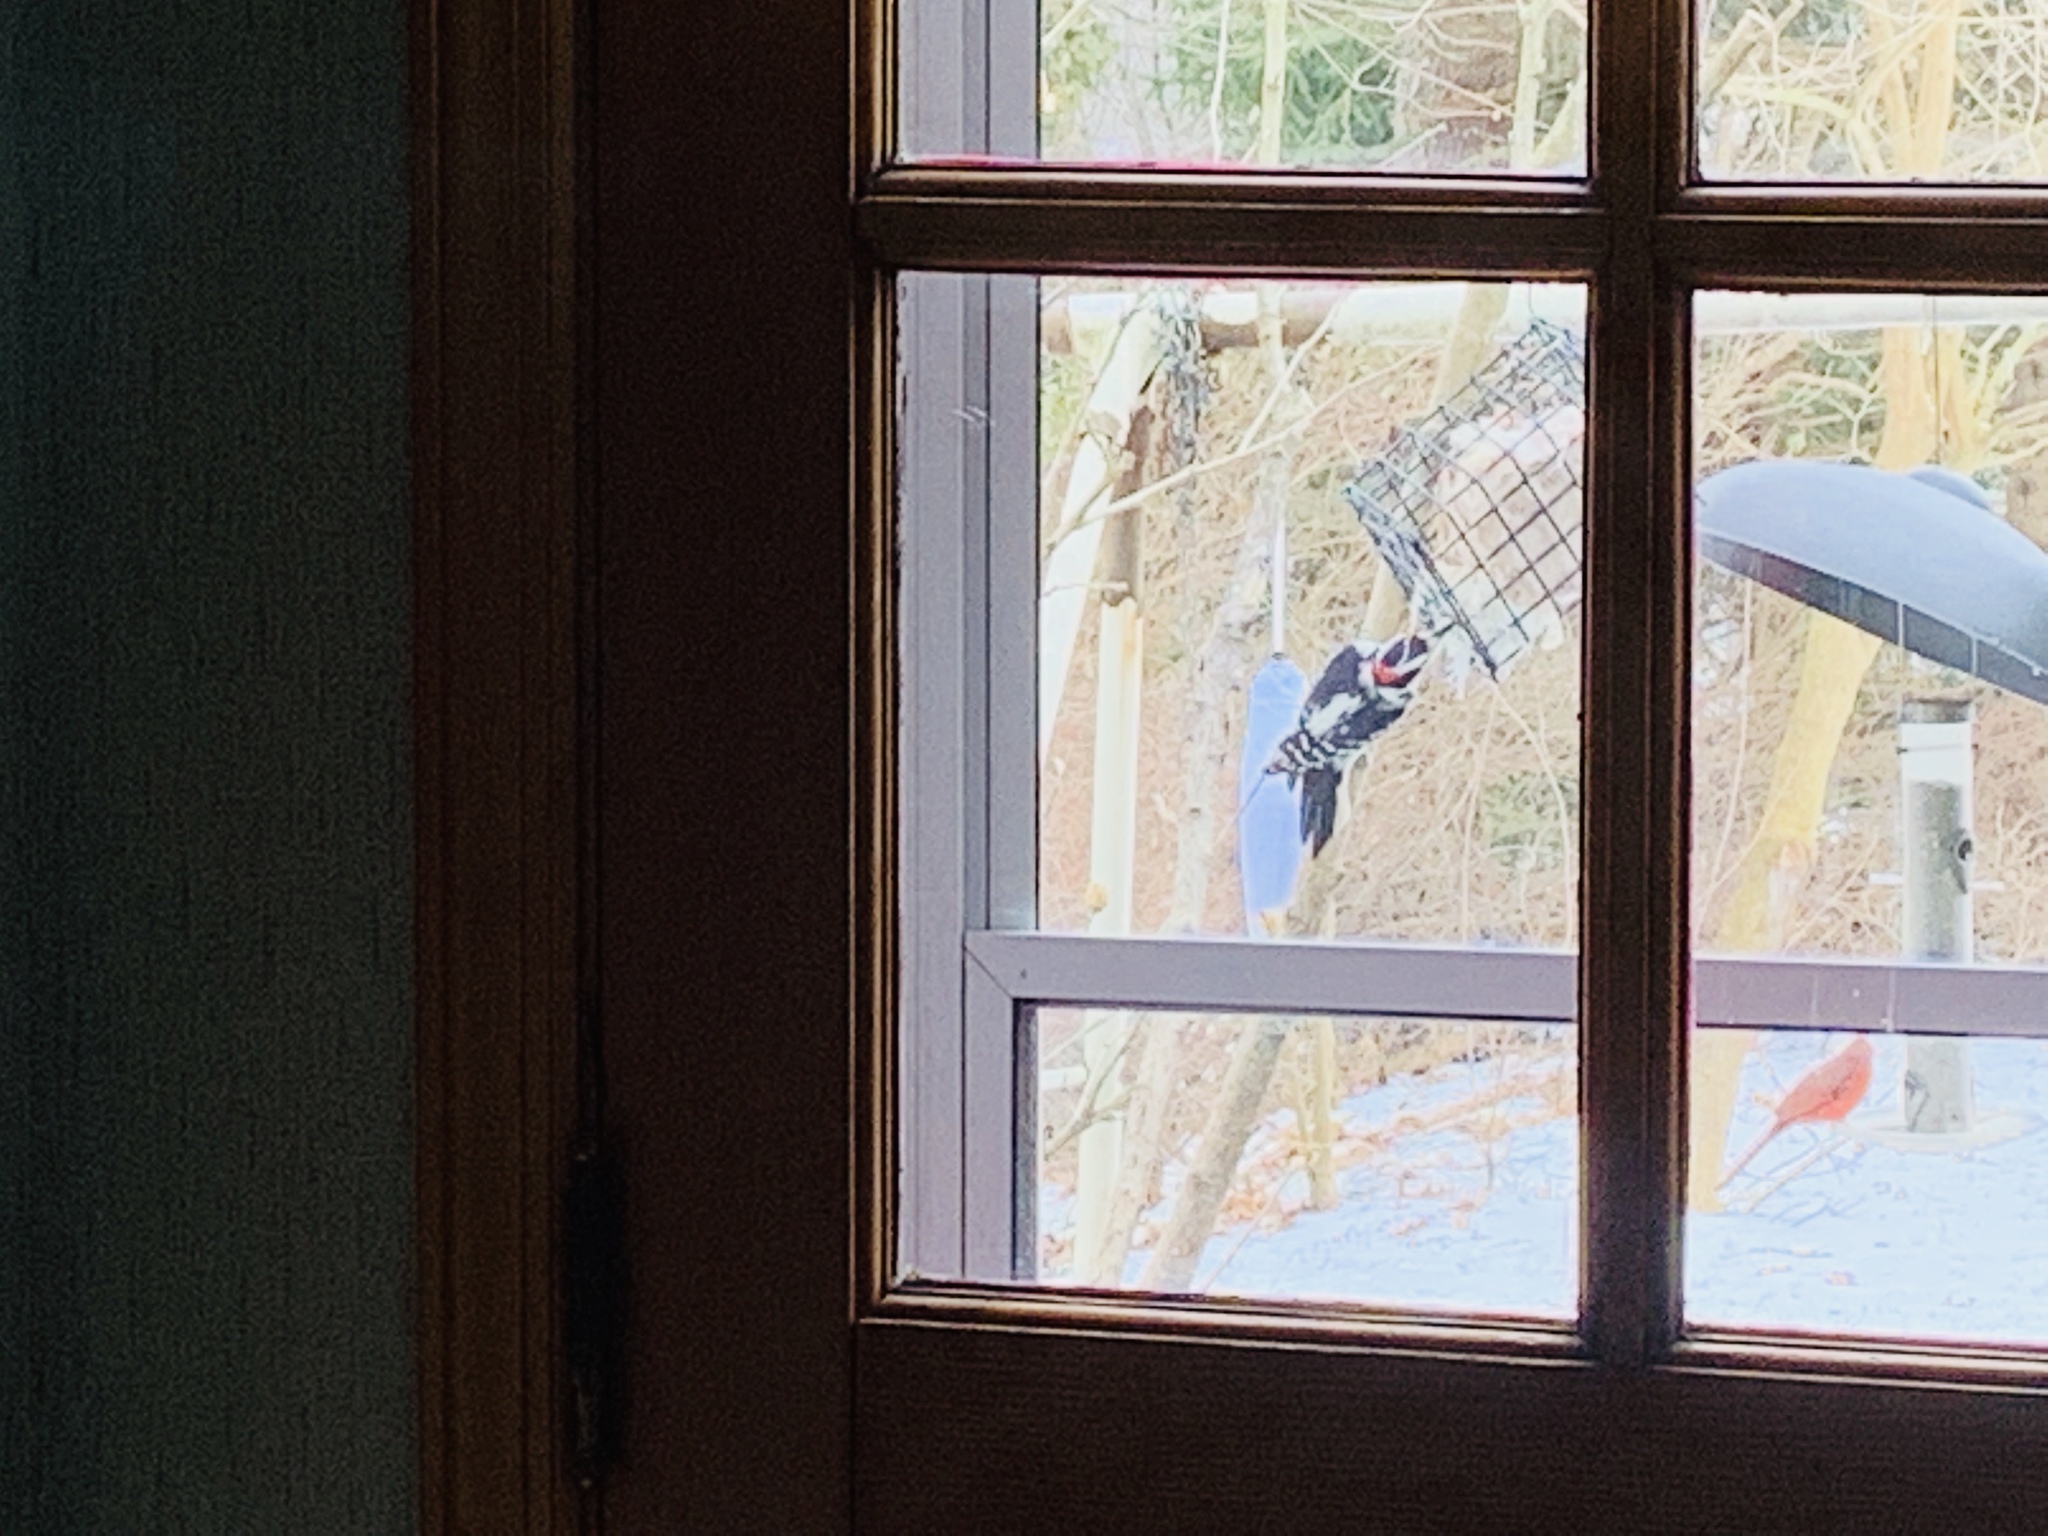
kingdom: Animalia
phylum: Chordata
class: Aves
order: Piciformes
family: Picidae
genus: Leuconotopicus
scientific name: Leuconotopicus villosus
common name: Hairy woodpecker
